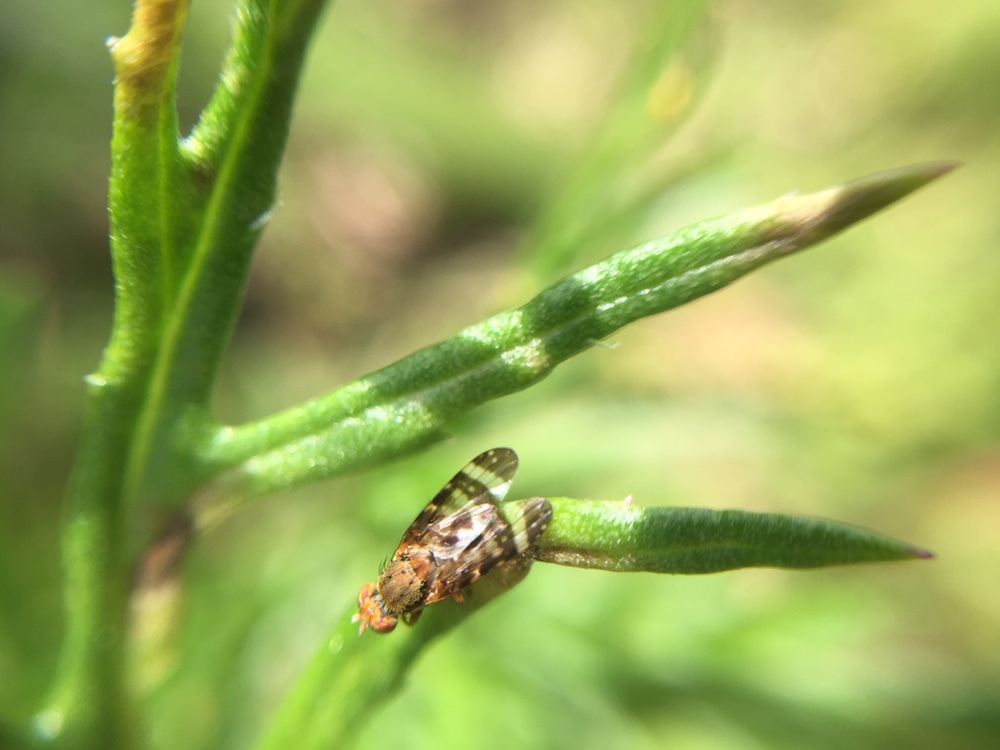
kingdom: Animalia
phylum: Arthropoda
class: Insecta
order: Diptera
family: Tephritidae
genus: Sphenella
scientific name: Sphenella
